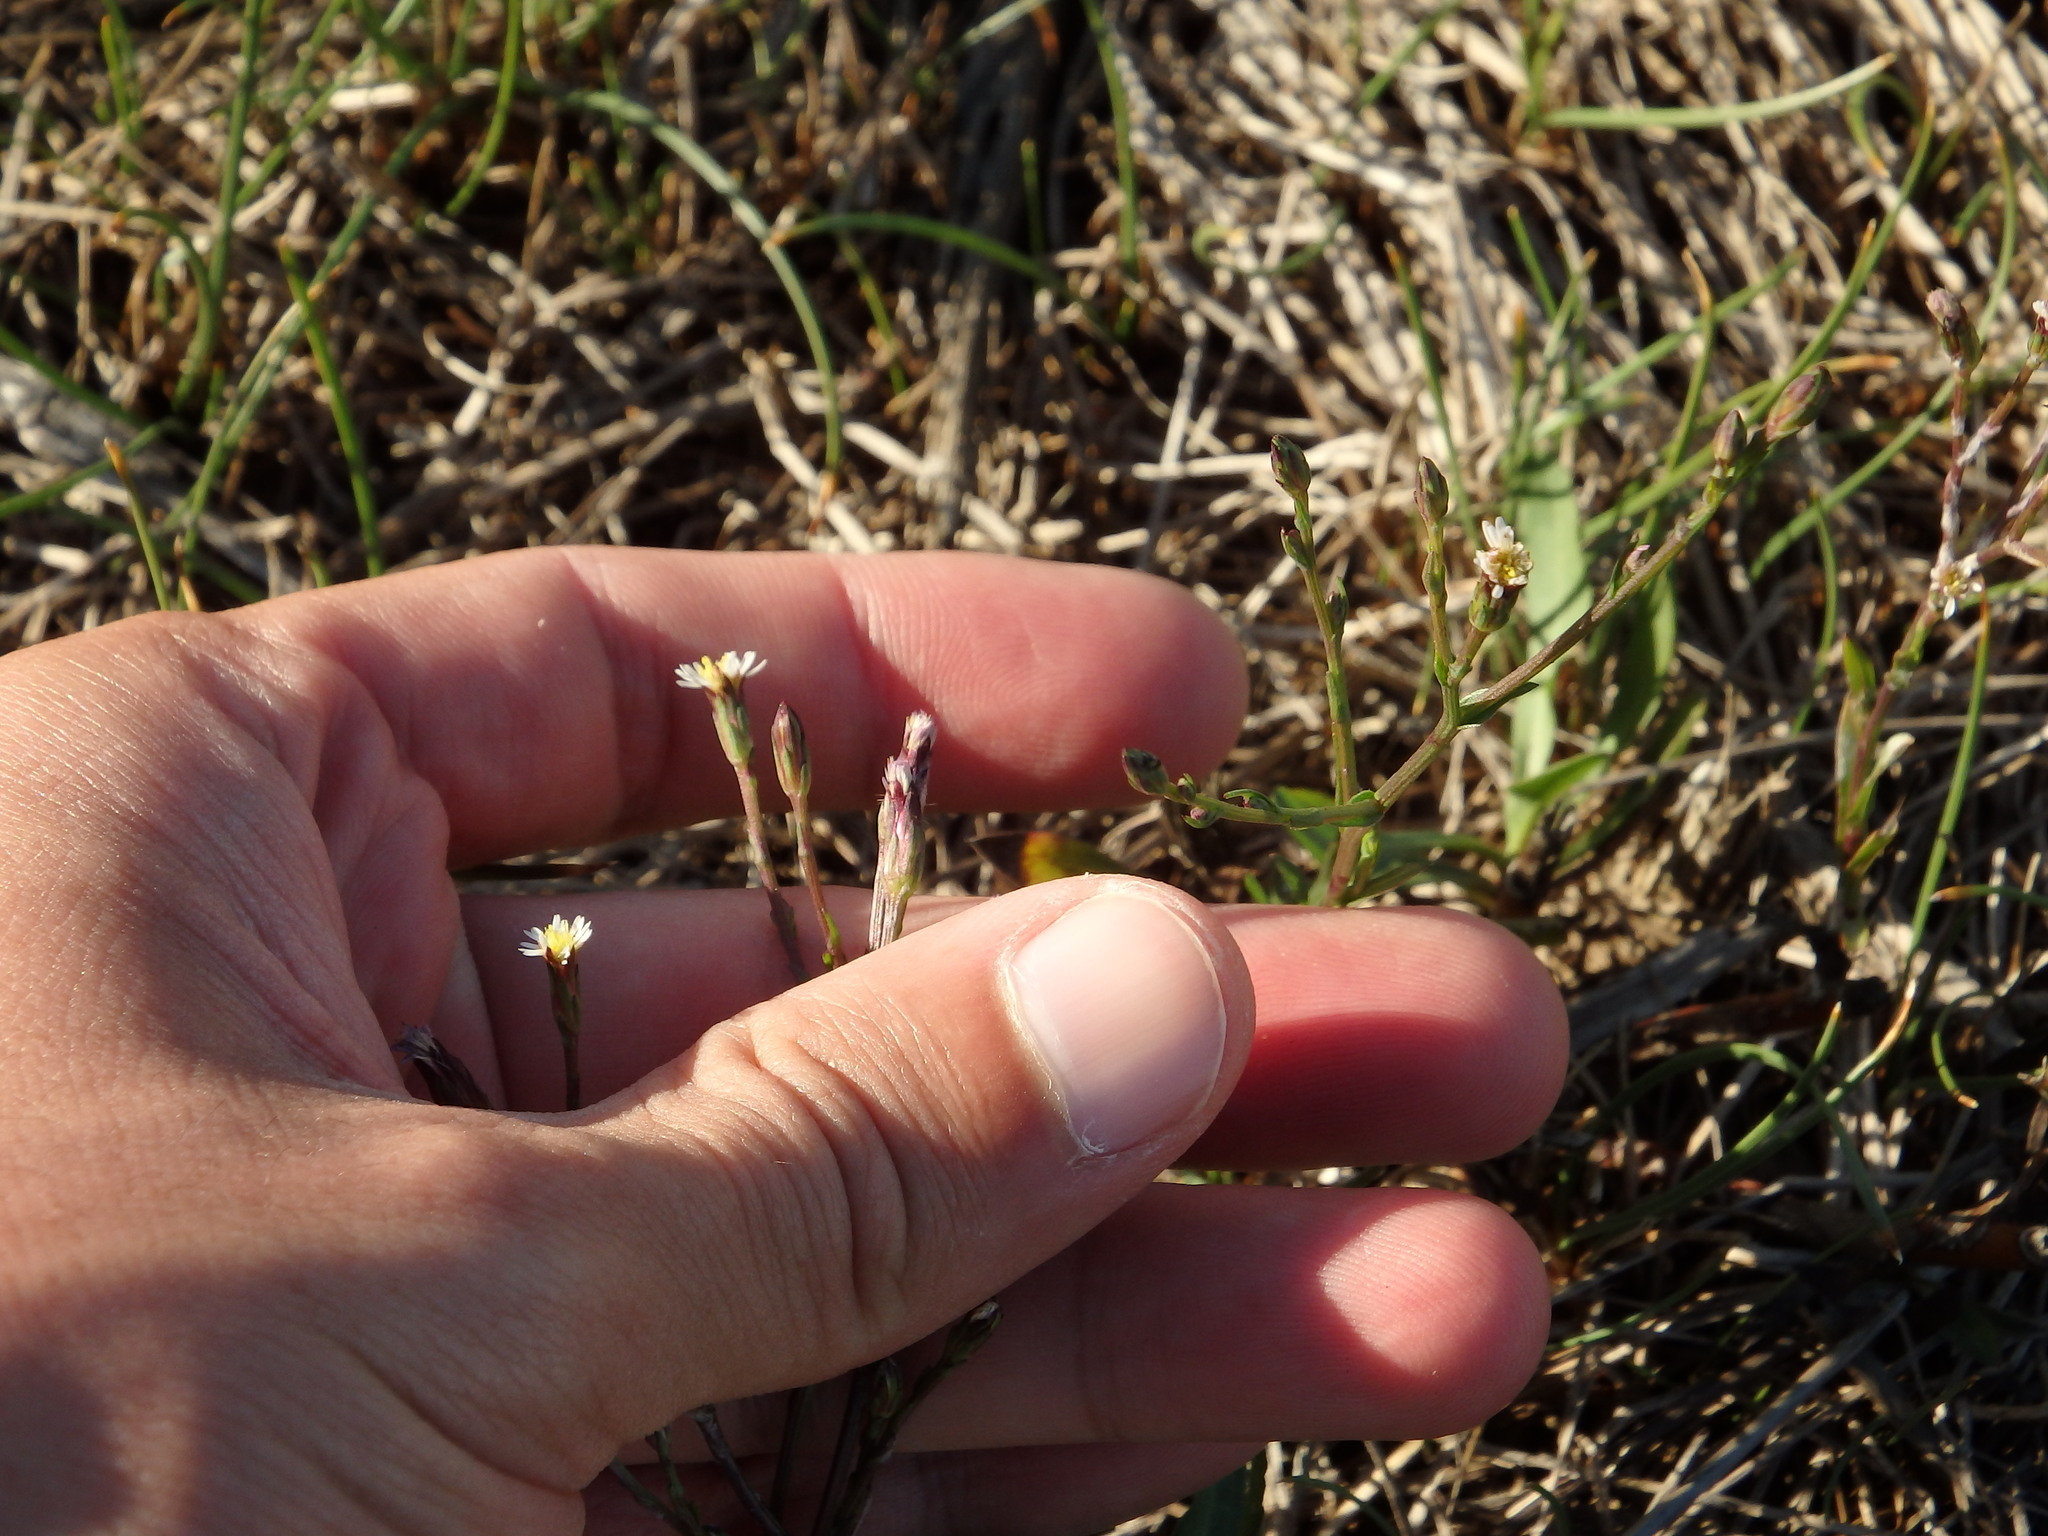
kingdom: Plantae
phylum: Tracheophyta
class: Magnoliopsida
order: Asterales
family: Asteraceae
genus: Symphyotrichum
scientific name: Symphyotrichum squamatum
